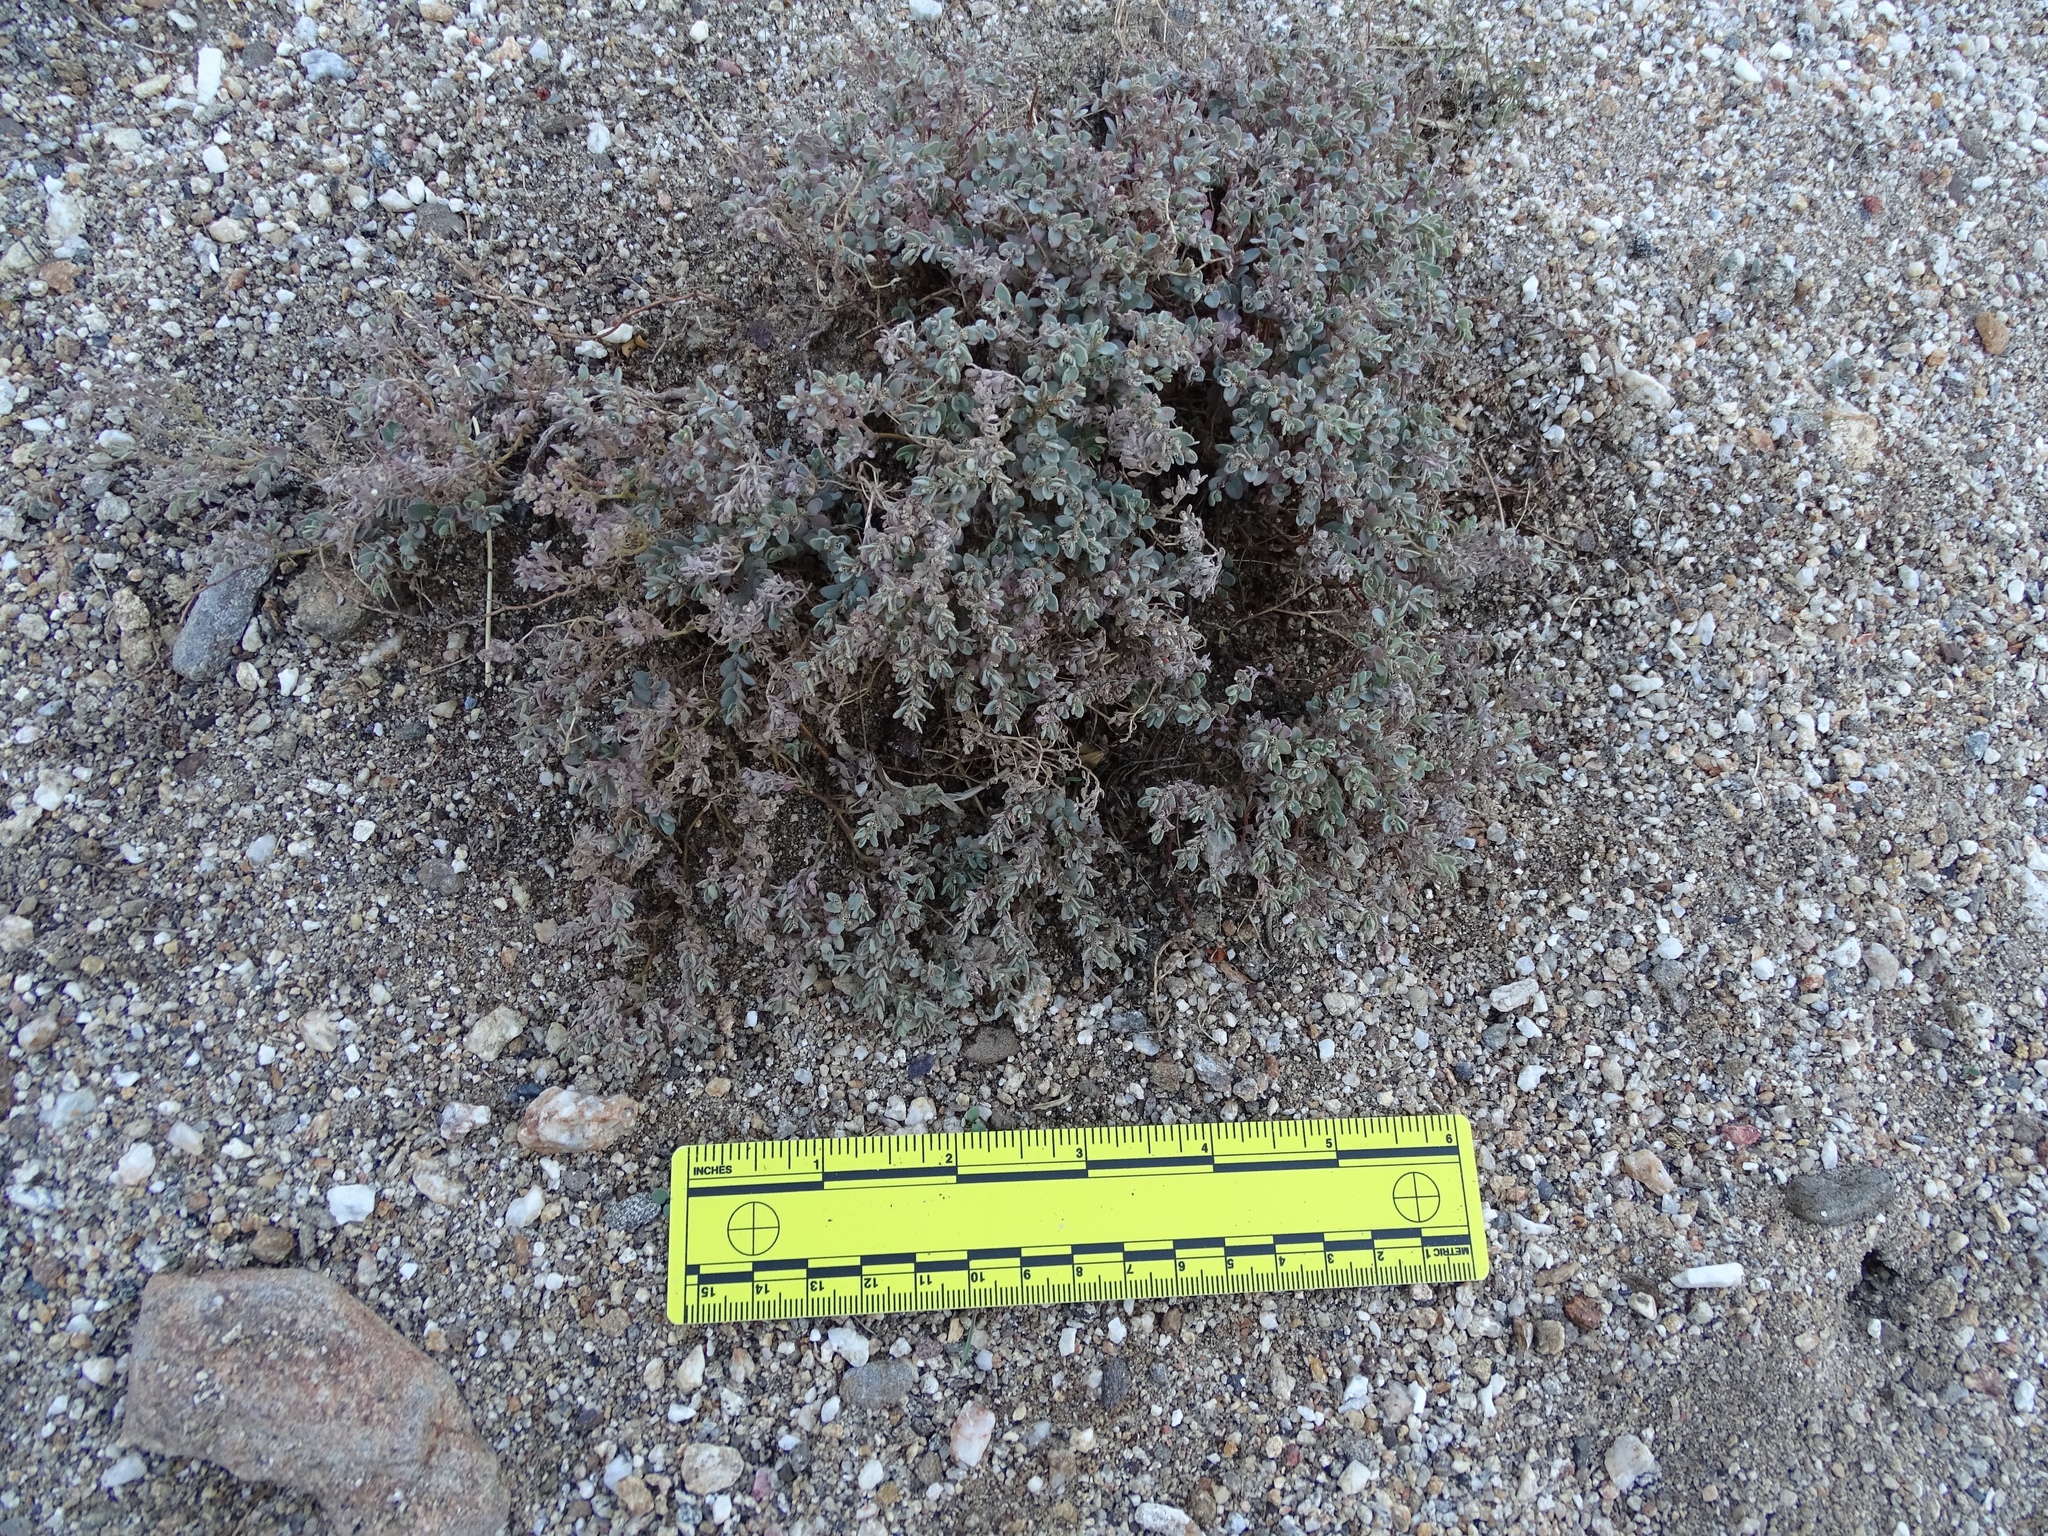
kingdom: Plantae
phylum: Tracheophyta
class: Magnoliopsida
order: Malpighiales
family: Euphorbiaceae
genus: Euphorbia
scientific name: Euphorbia melanadenia
